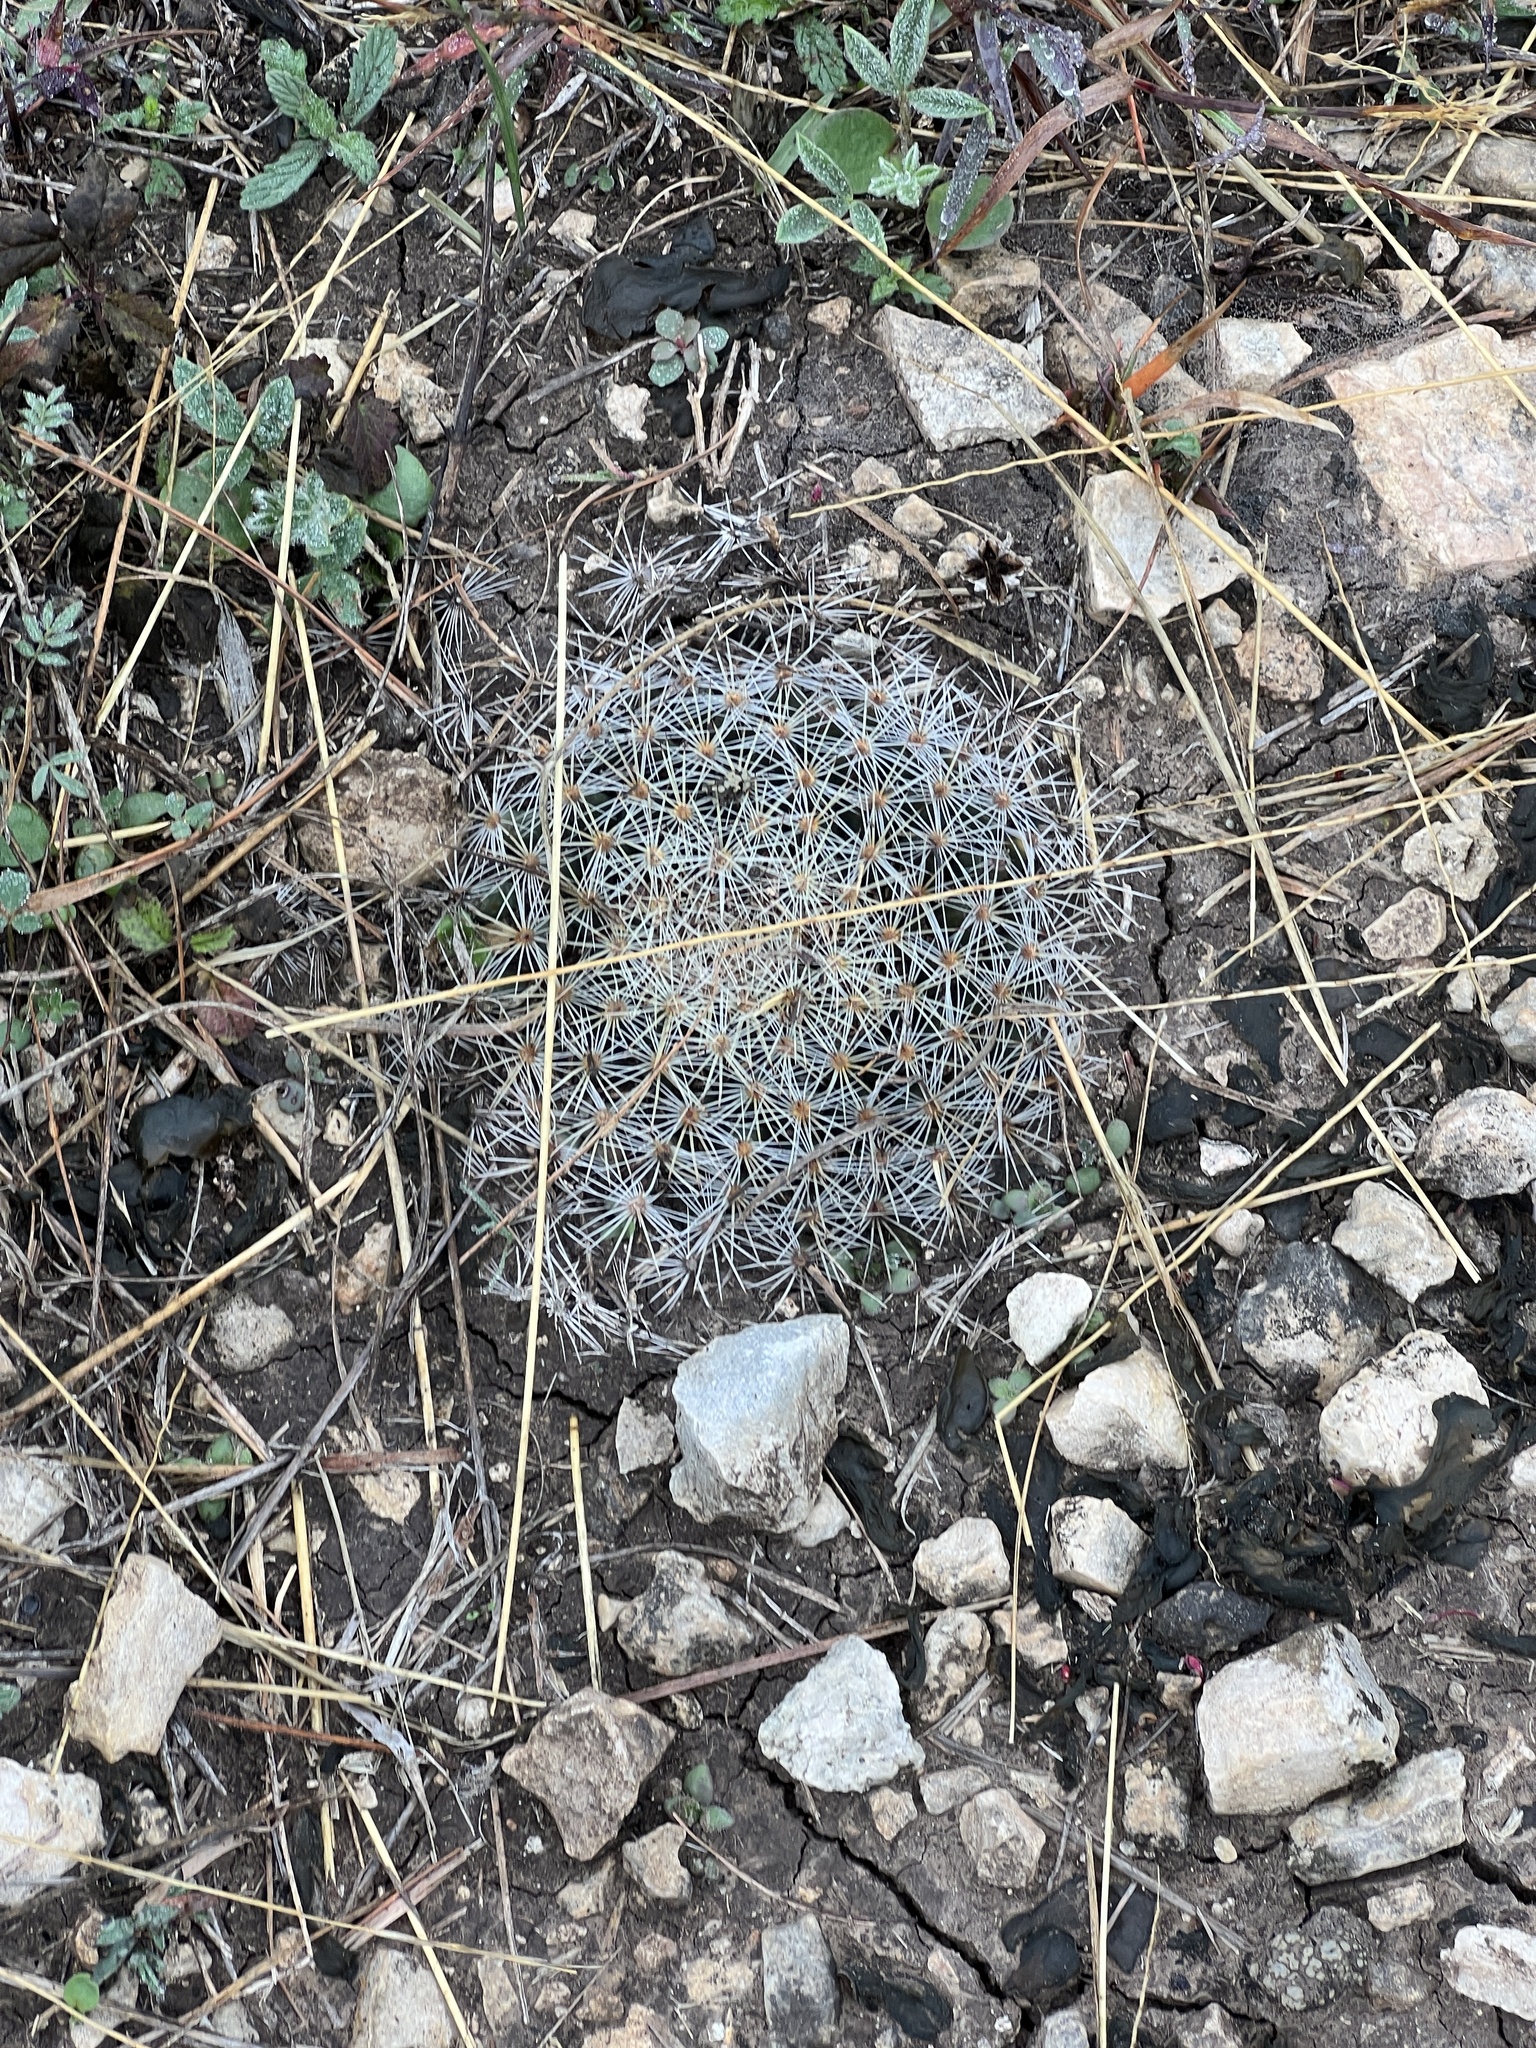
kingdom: Plantae
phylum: Tracheophyta
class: Magnoliopsida
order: Caryophyllales
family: Cactaceae
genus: Mammillaria
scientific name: Mammillaria heyderi
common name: Little nipple cactus
